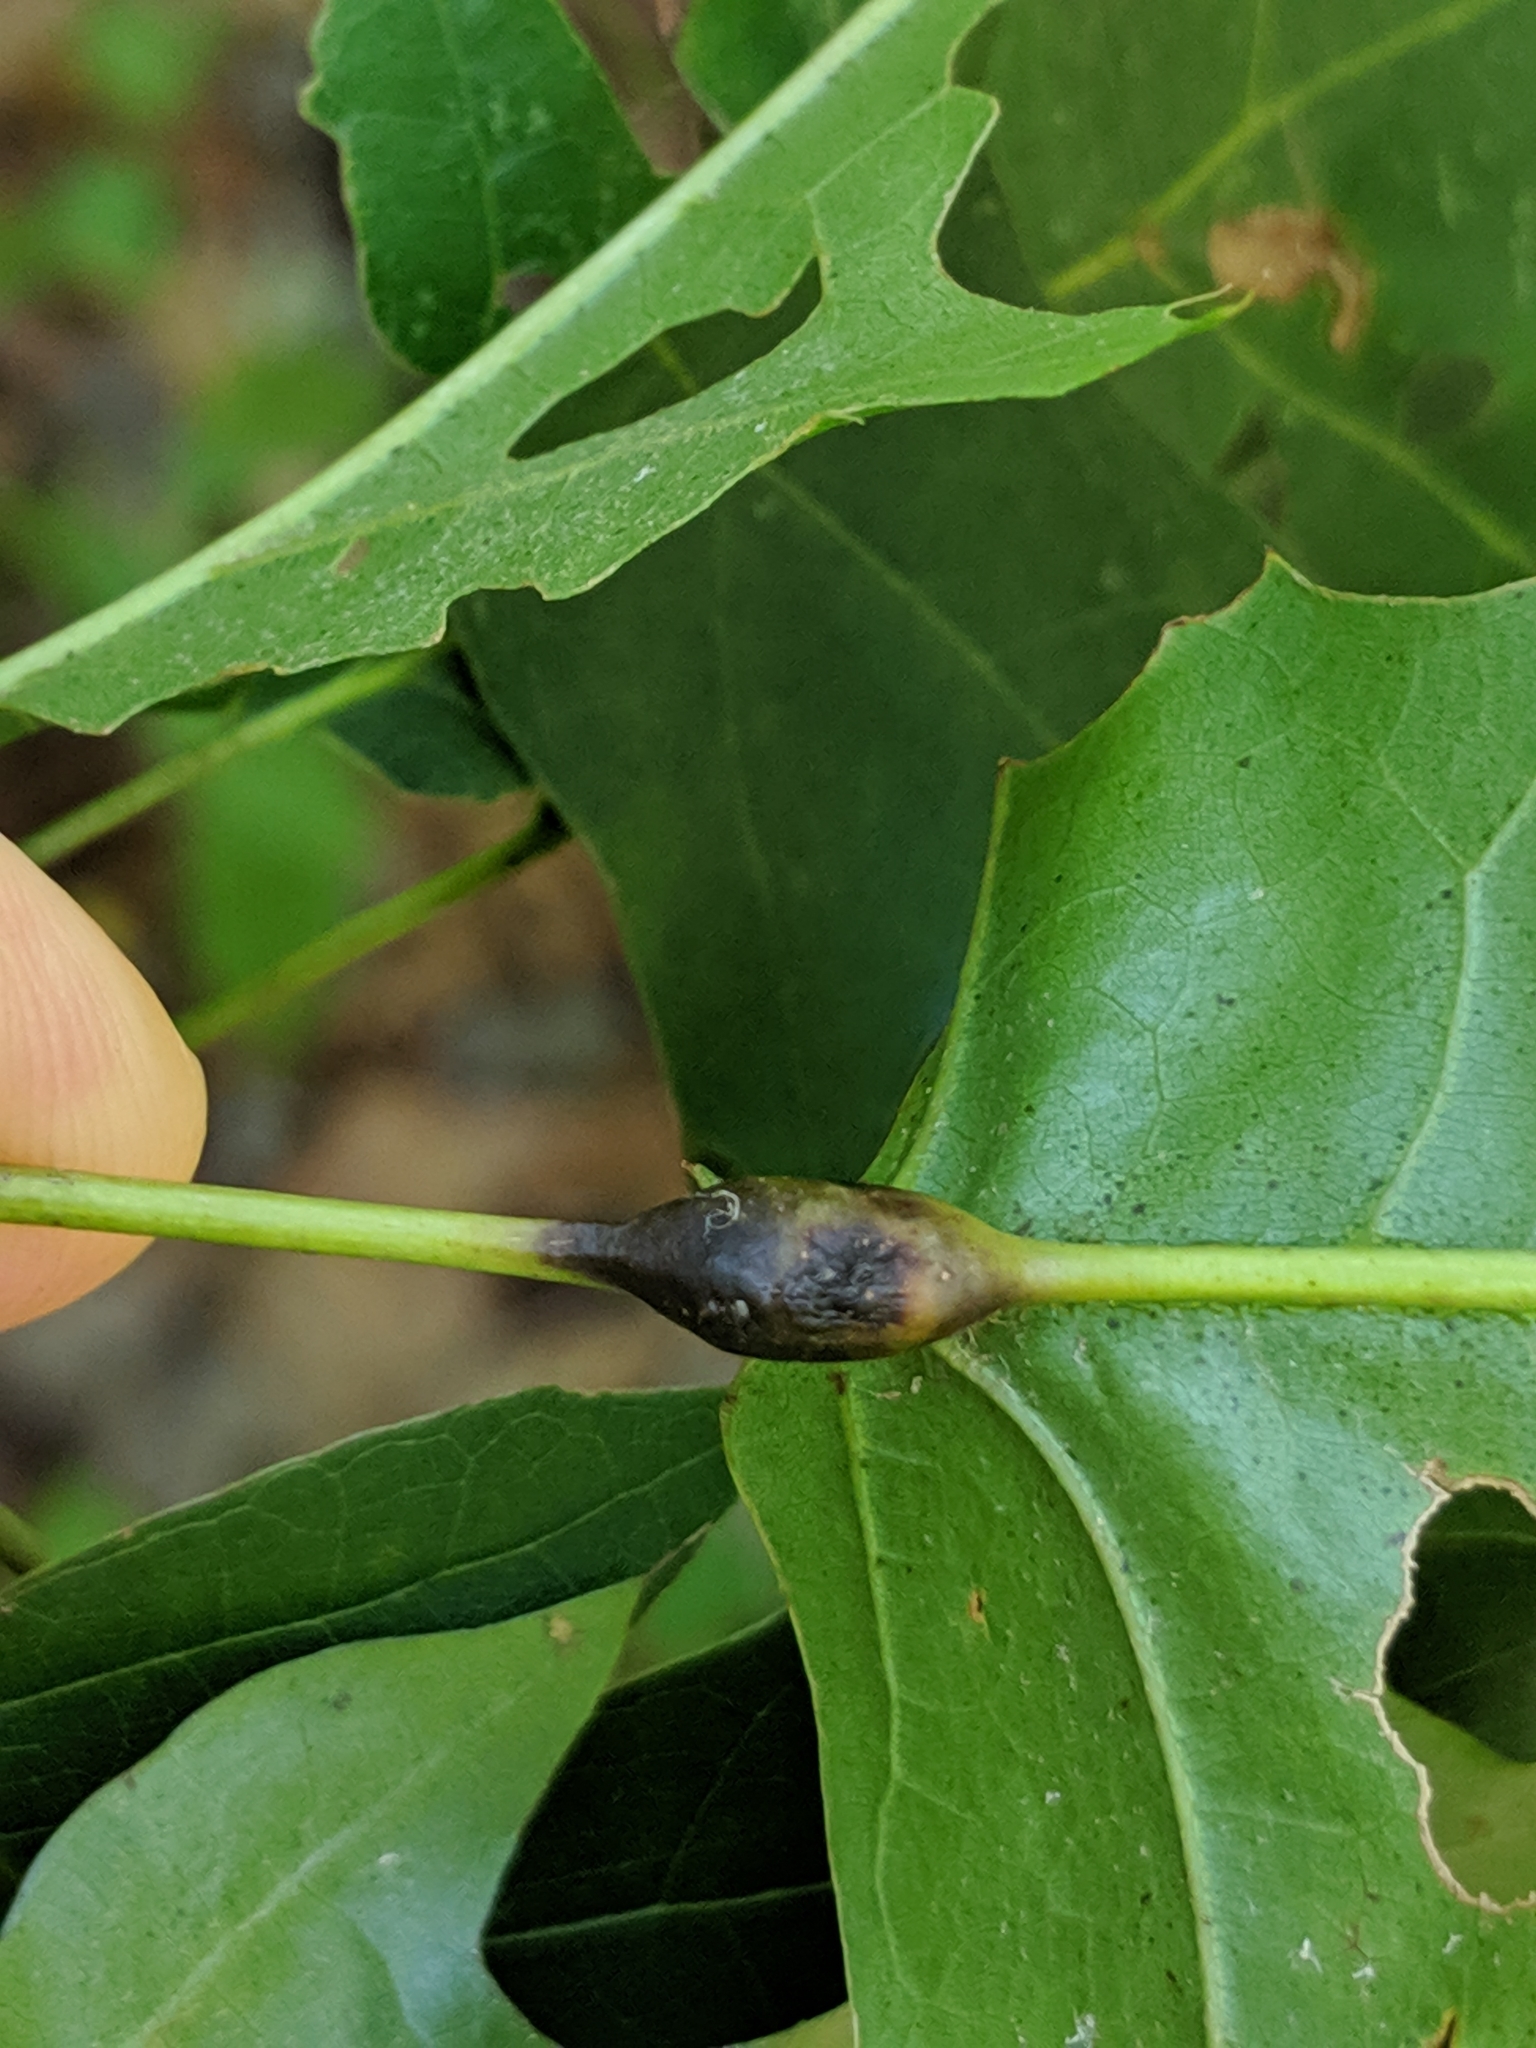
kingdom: Animalia
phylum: Arthropoda
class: Insecta
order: Hymenoptera
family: Cynipidae
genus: Melikaiella
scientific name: Melikaiella tumifica
